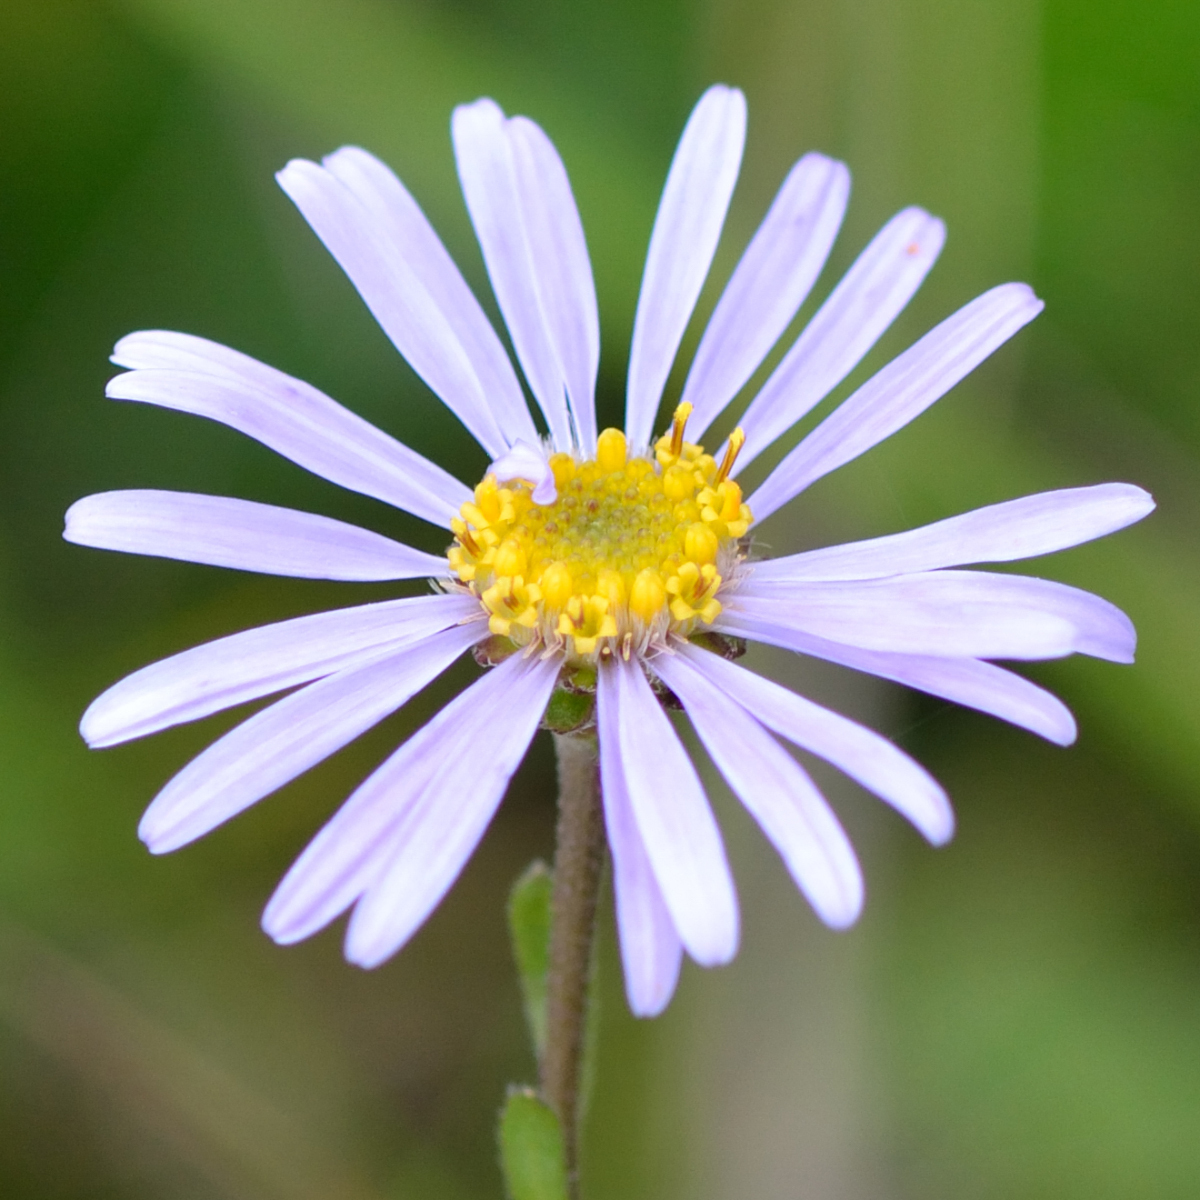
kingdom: Plantae
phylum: Tracheophyta
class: Magnoliopsida
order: Asterales
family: Asteraceae
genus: Aster
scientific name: Aster amellus
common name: European michaelmas daisy
